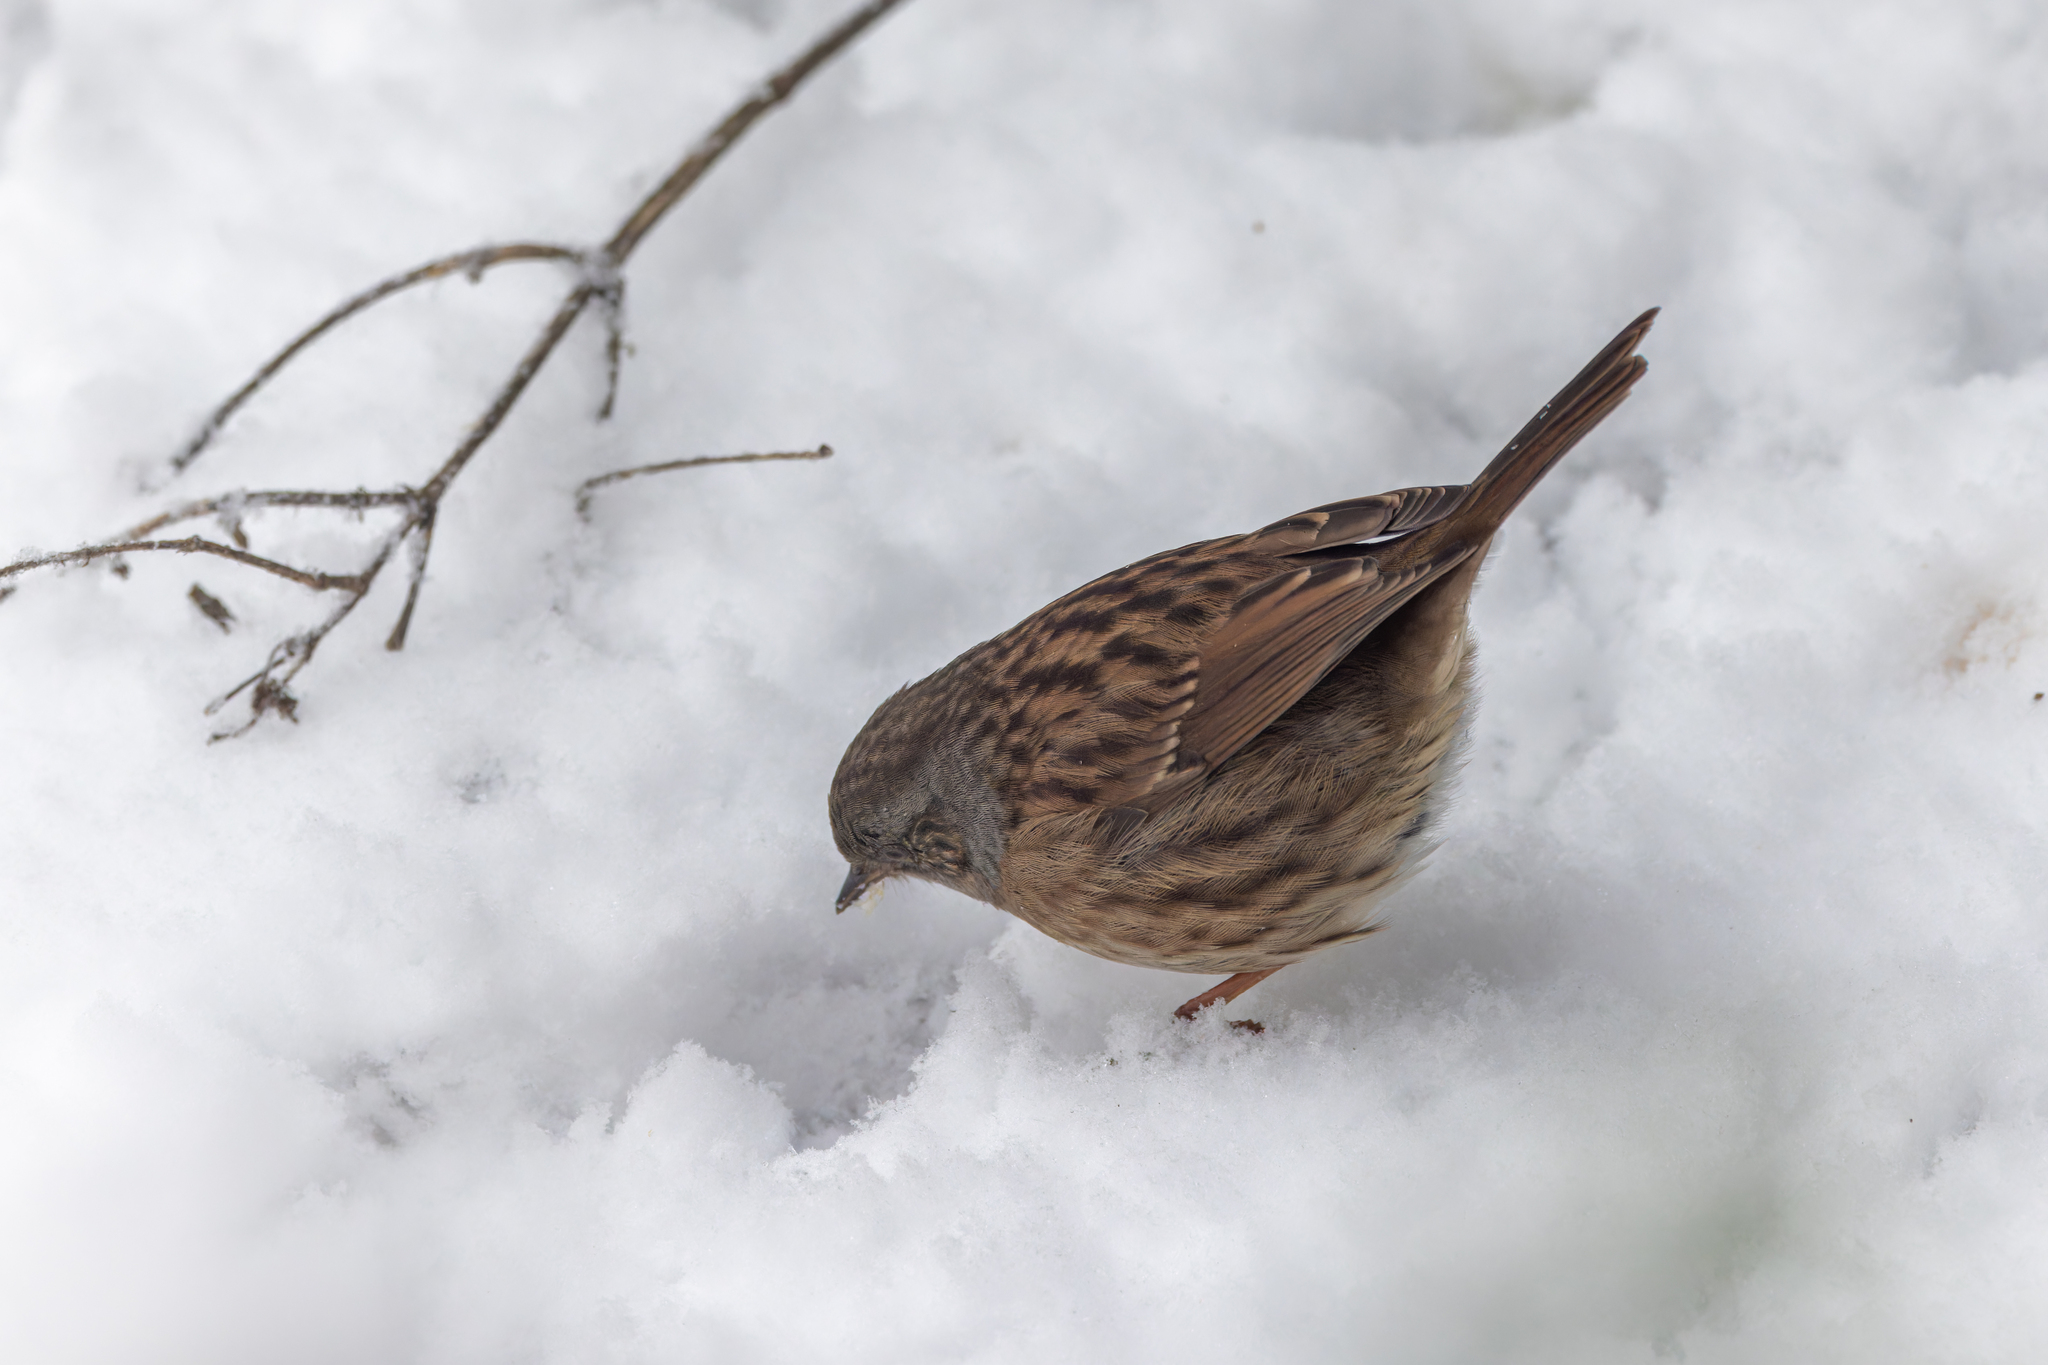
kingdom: Animalia
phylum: Chordata
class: Aves
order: Passeriformes
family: Prunellidae
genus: Prunella
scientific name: Prunella modularis
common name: Dunnock
